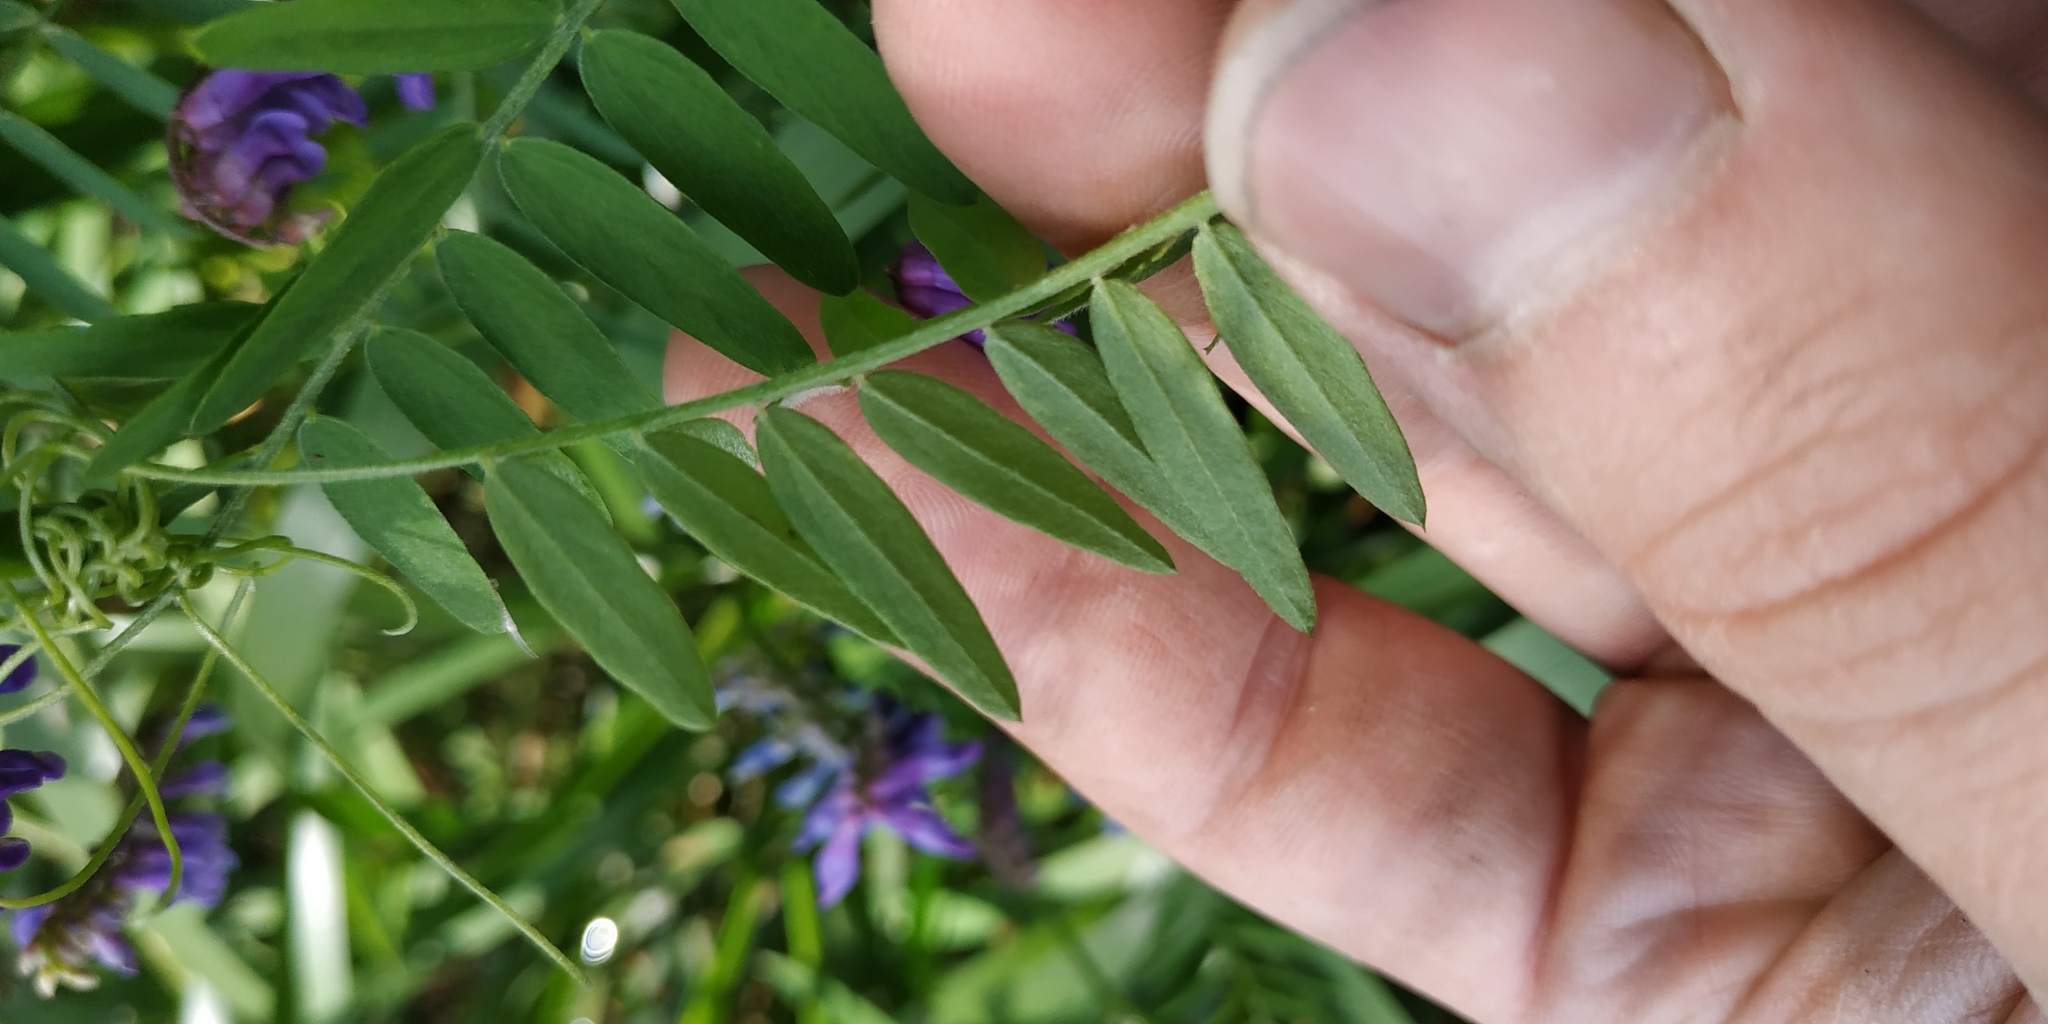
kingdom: Plantae
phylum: Tracheophyta
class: Magnoliopsida
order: Fabales
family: Fabaceae
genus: Vicia
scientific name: Vicia cracca
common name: Bird vetch
